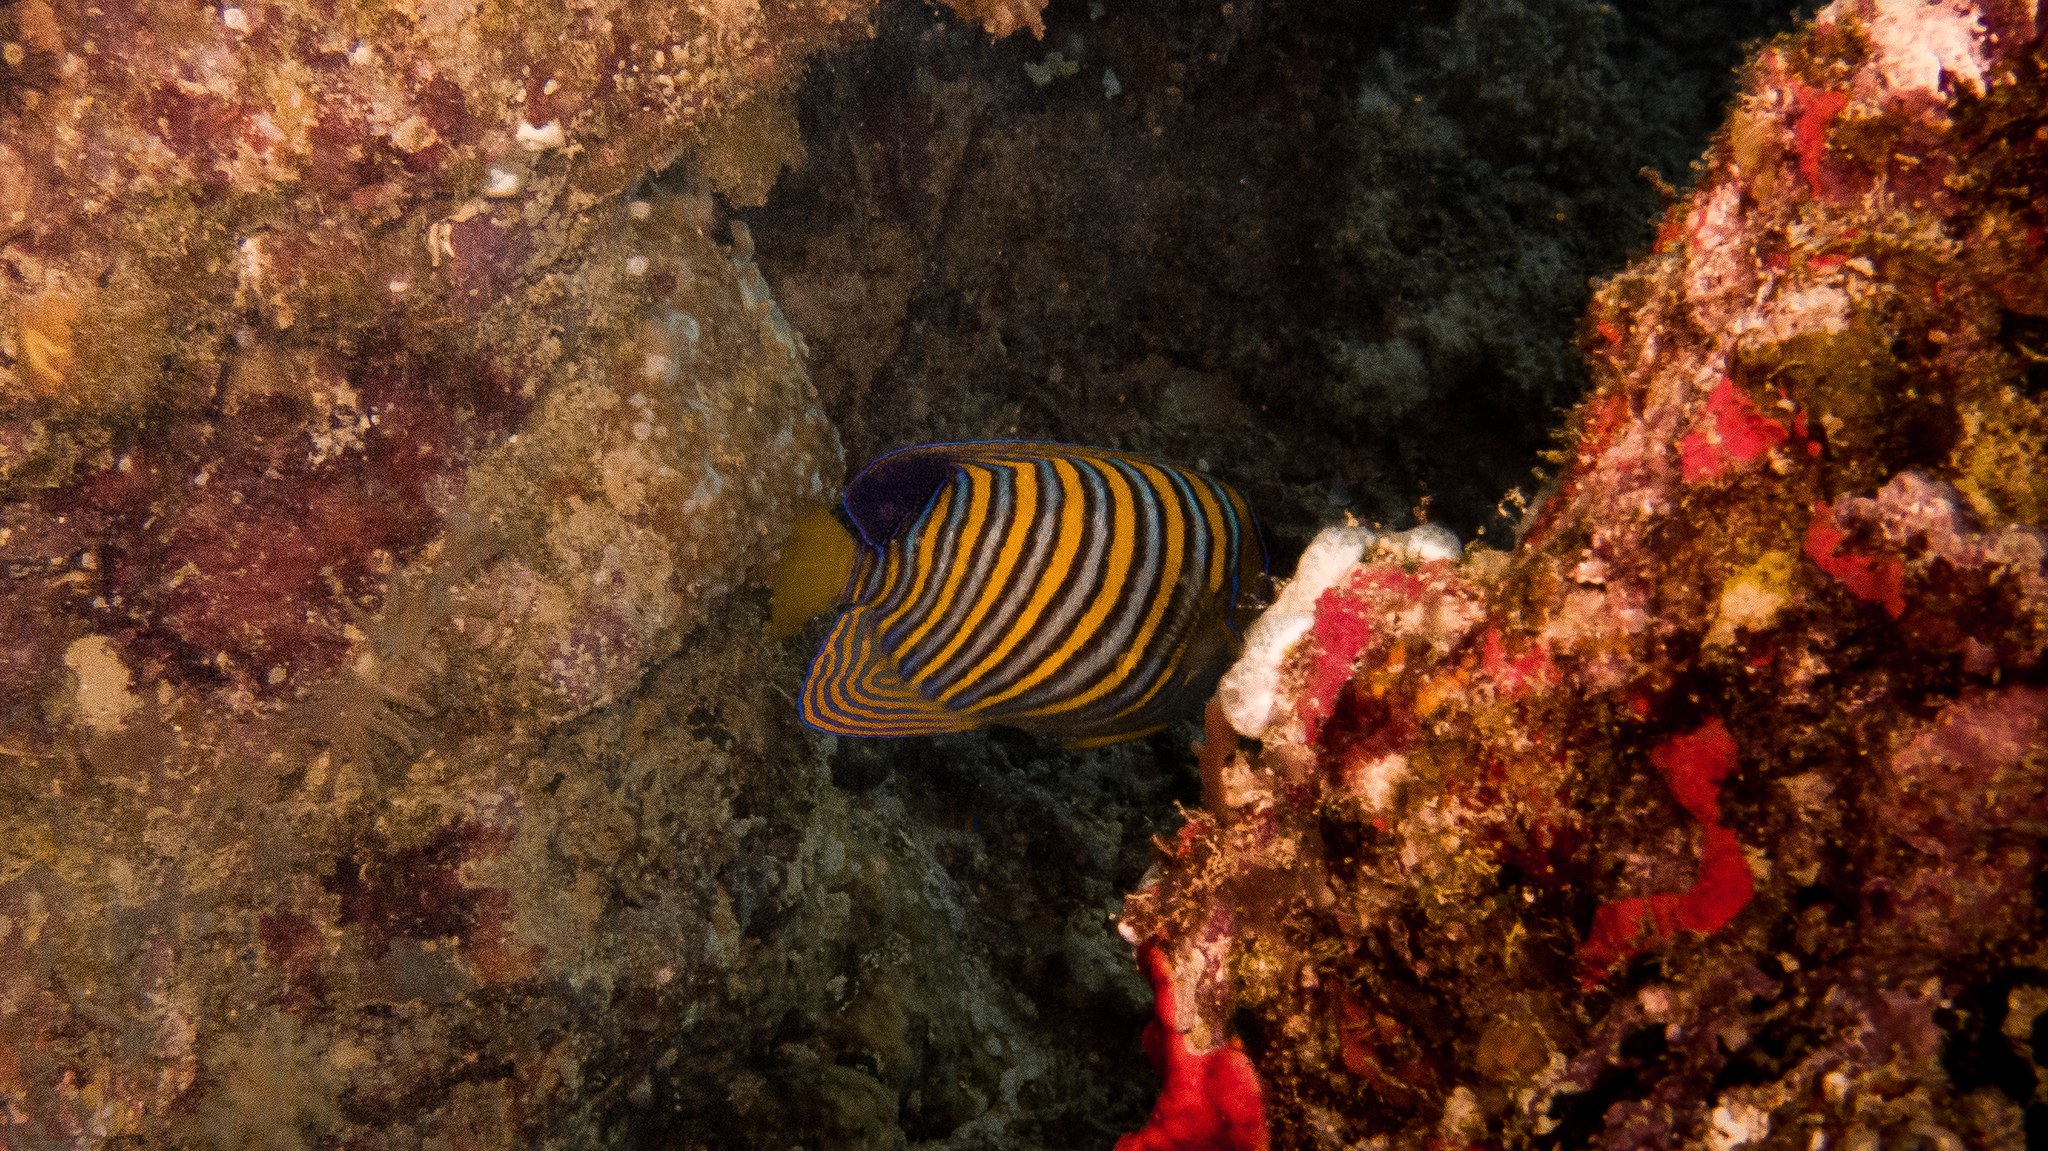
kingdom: Animalia
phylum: Chordata
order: Perciformes
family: Pomacanthidae
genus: Pygoplites
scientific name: Pygoplites diacanthus
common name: Regal angelfish
